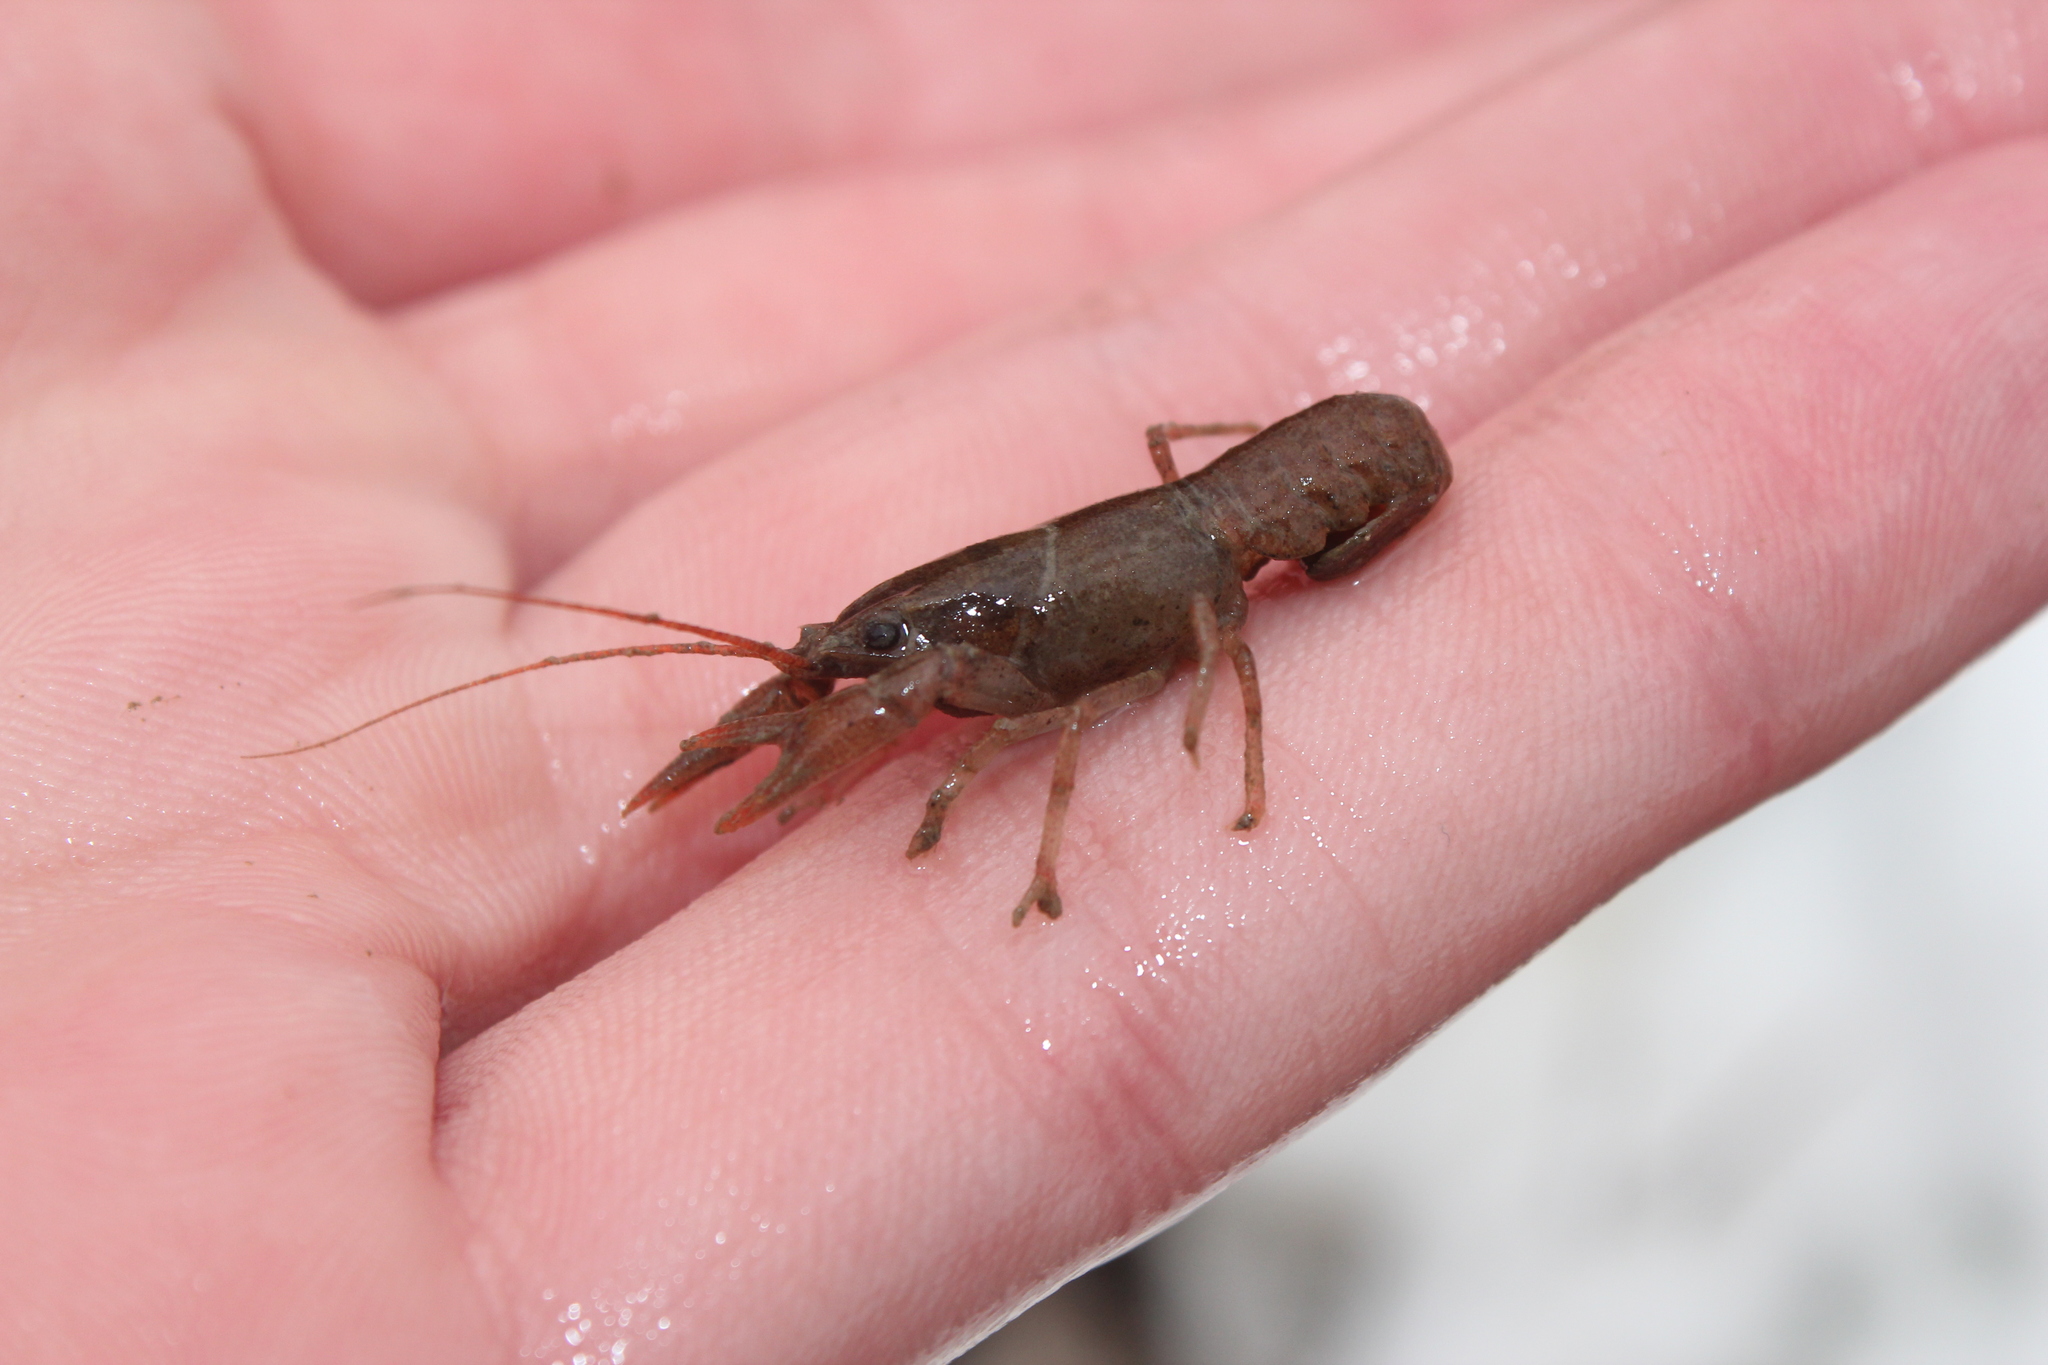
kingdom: Animalia
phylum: Arthropoda
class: Malacostraca
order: Decapoda
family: Cambaridae
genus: Cambarus
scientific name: Cambarus robustus
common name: Big water crayfish
